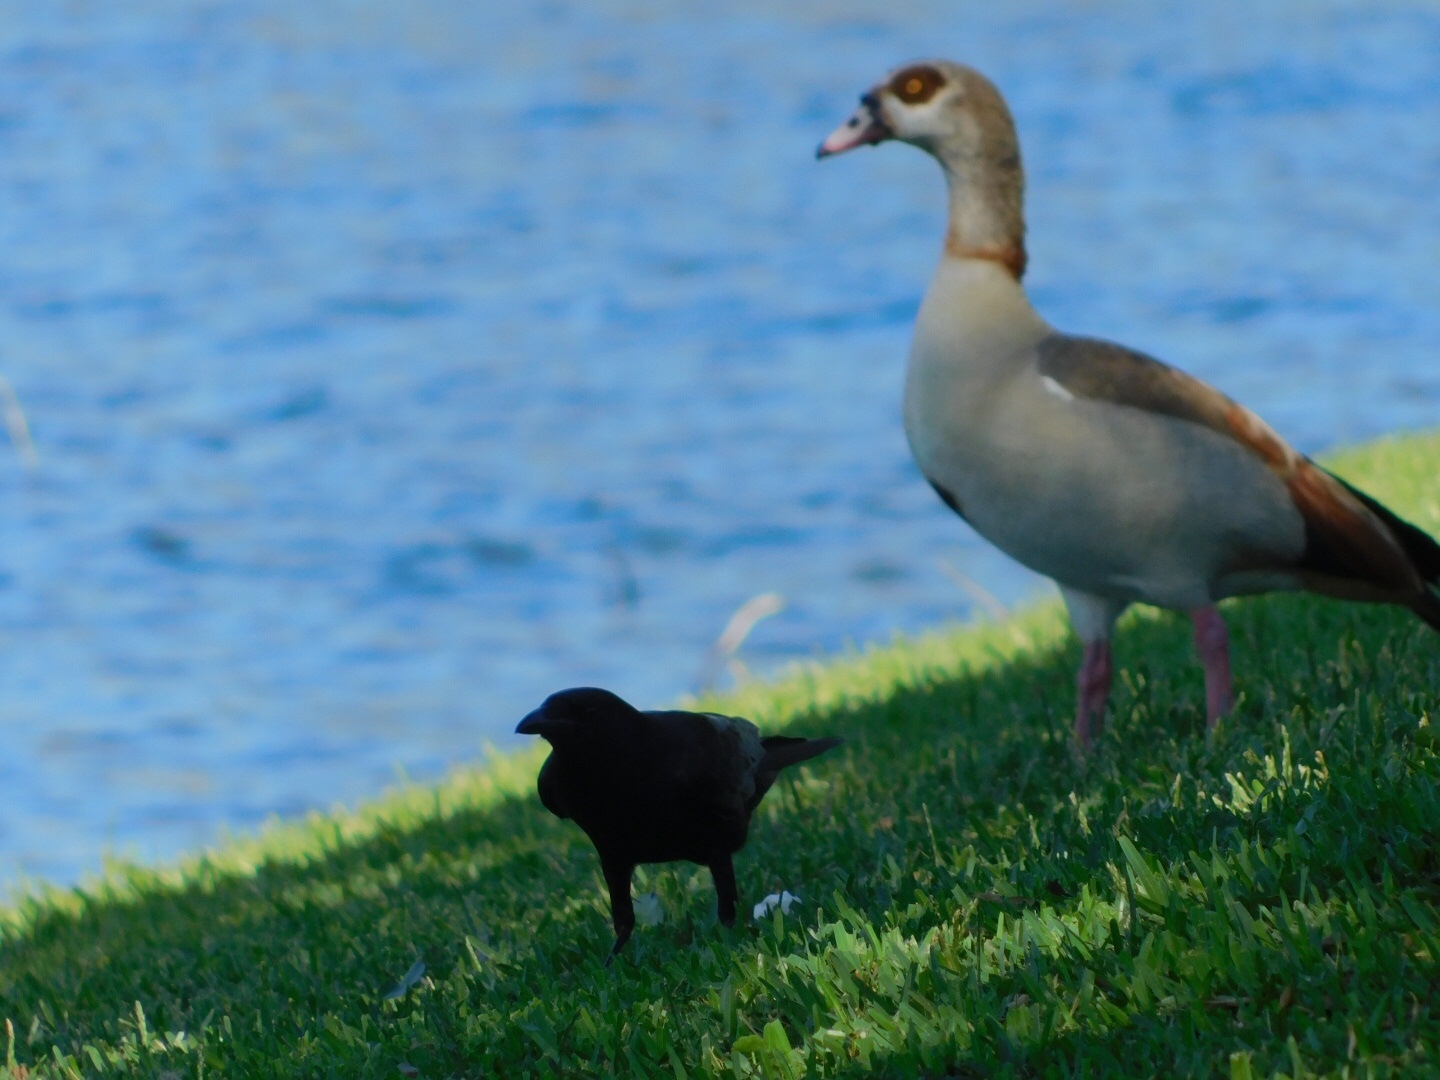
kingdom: Animalia
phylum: Chordata
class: Aves
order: Passeriformes
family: Corvidae
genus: Corvus
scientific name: Corvus
